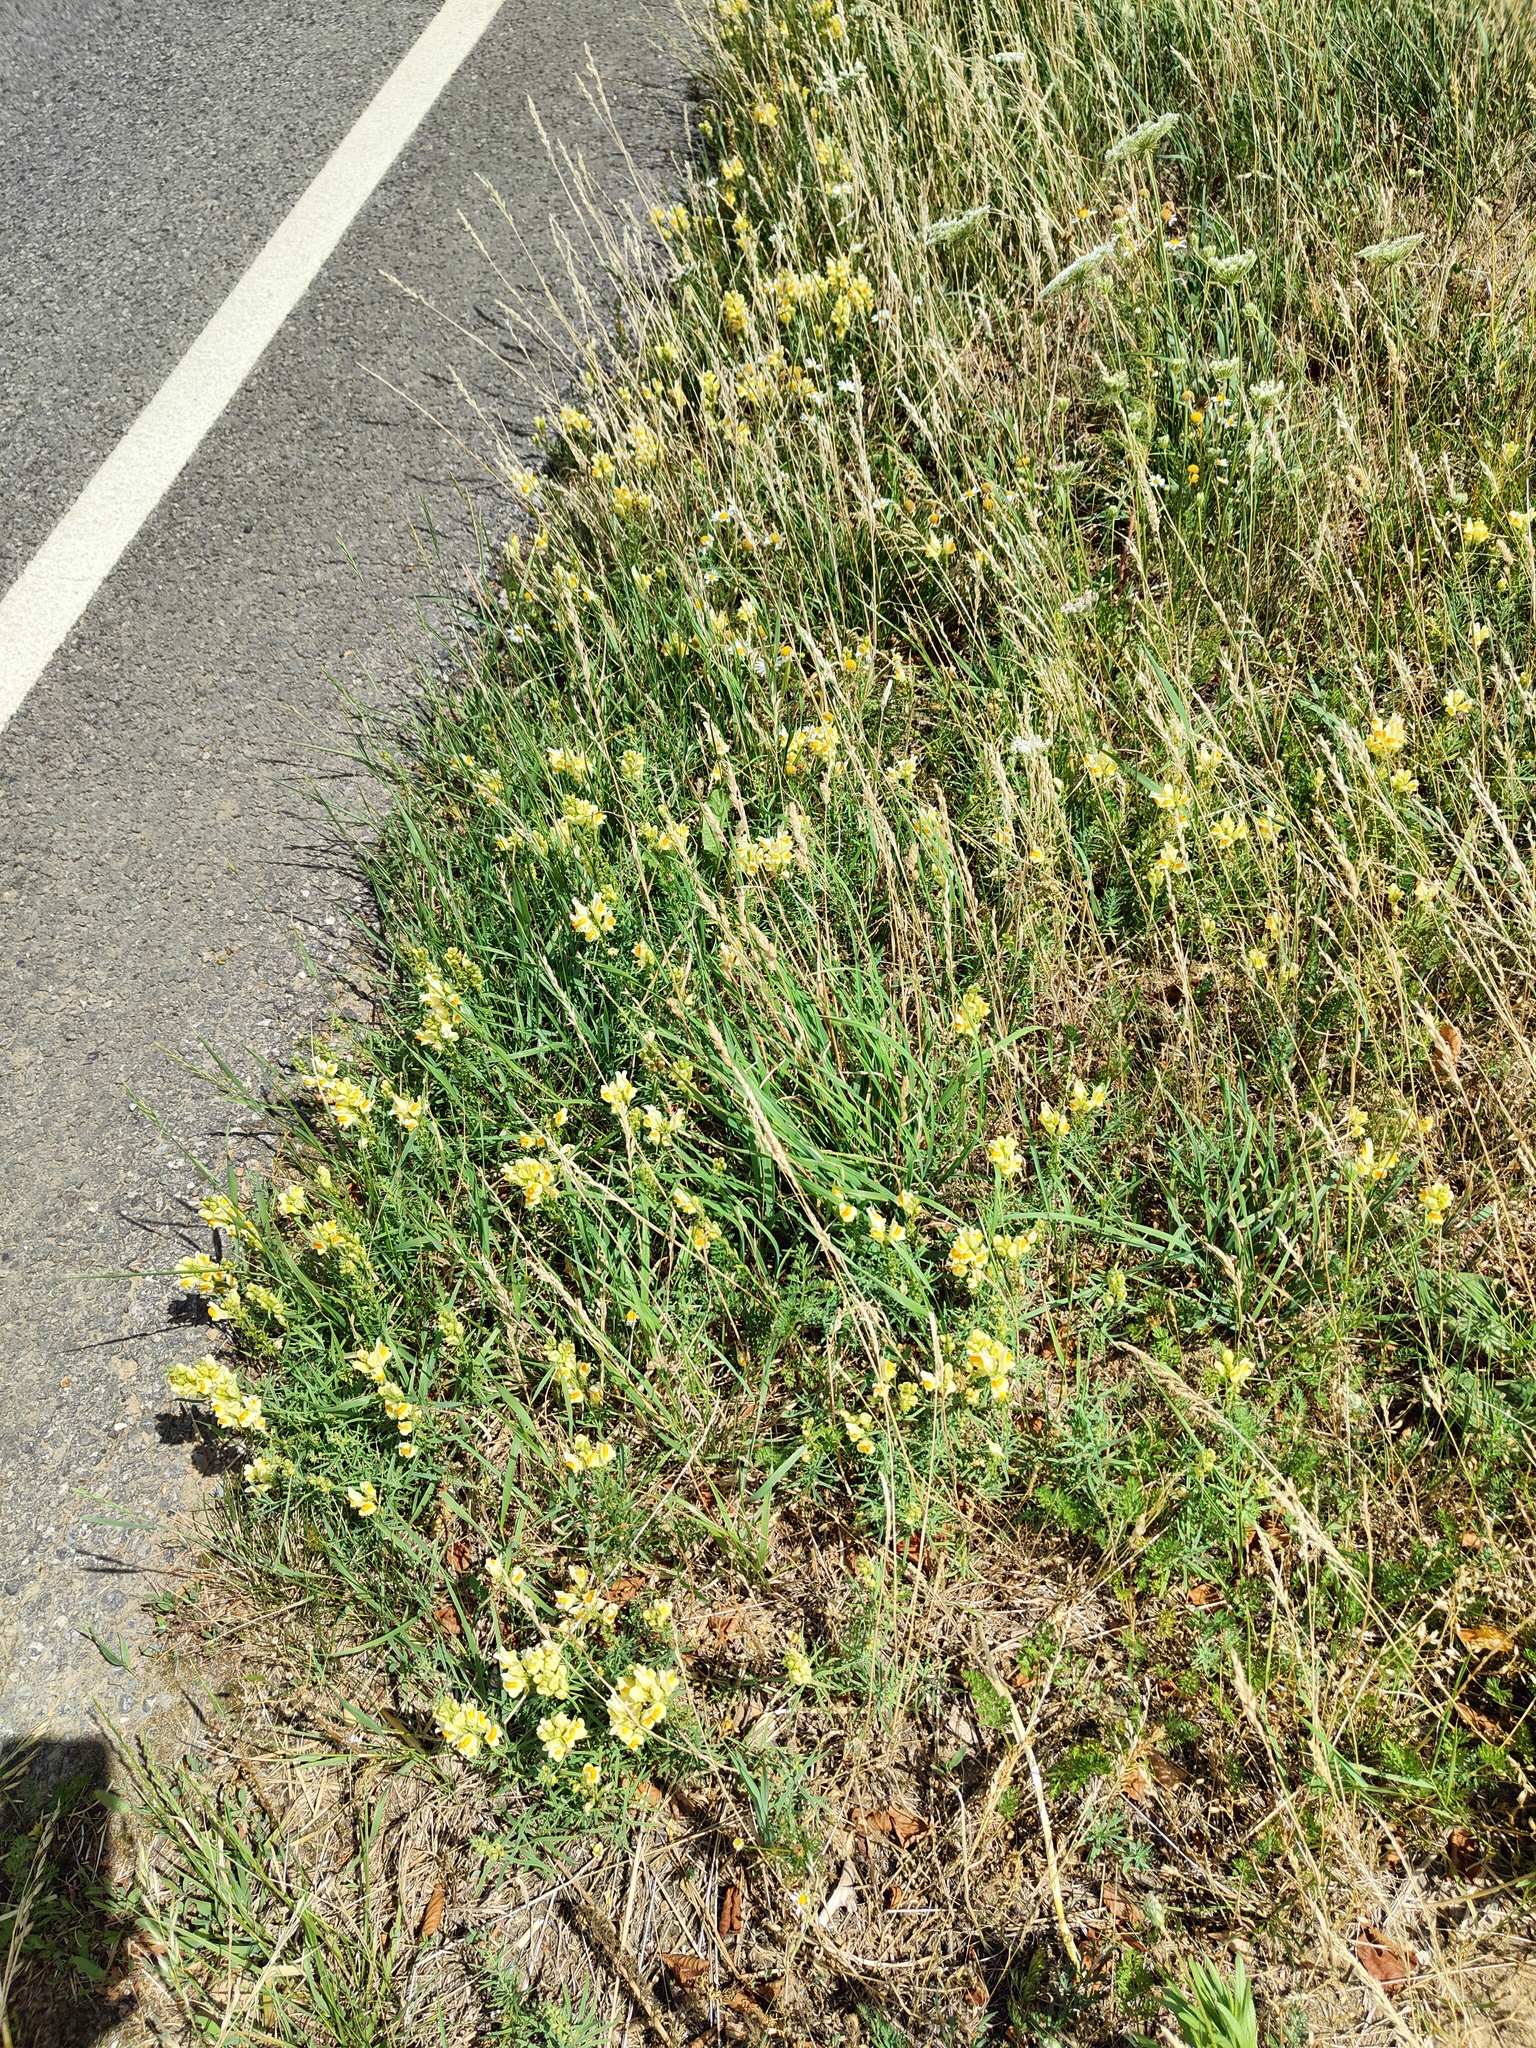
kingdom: Plantae
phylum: Tracheophyta
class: Magnoliopsida
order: Lamiales
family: Plantaginaceae
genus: Linaria
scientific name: Linaria vulgaris
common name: Butter and eggs
